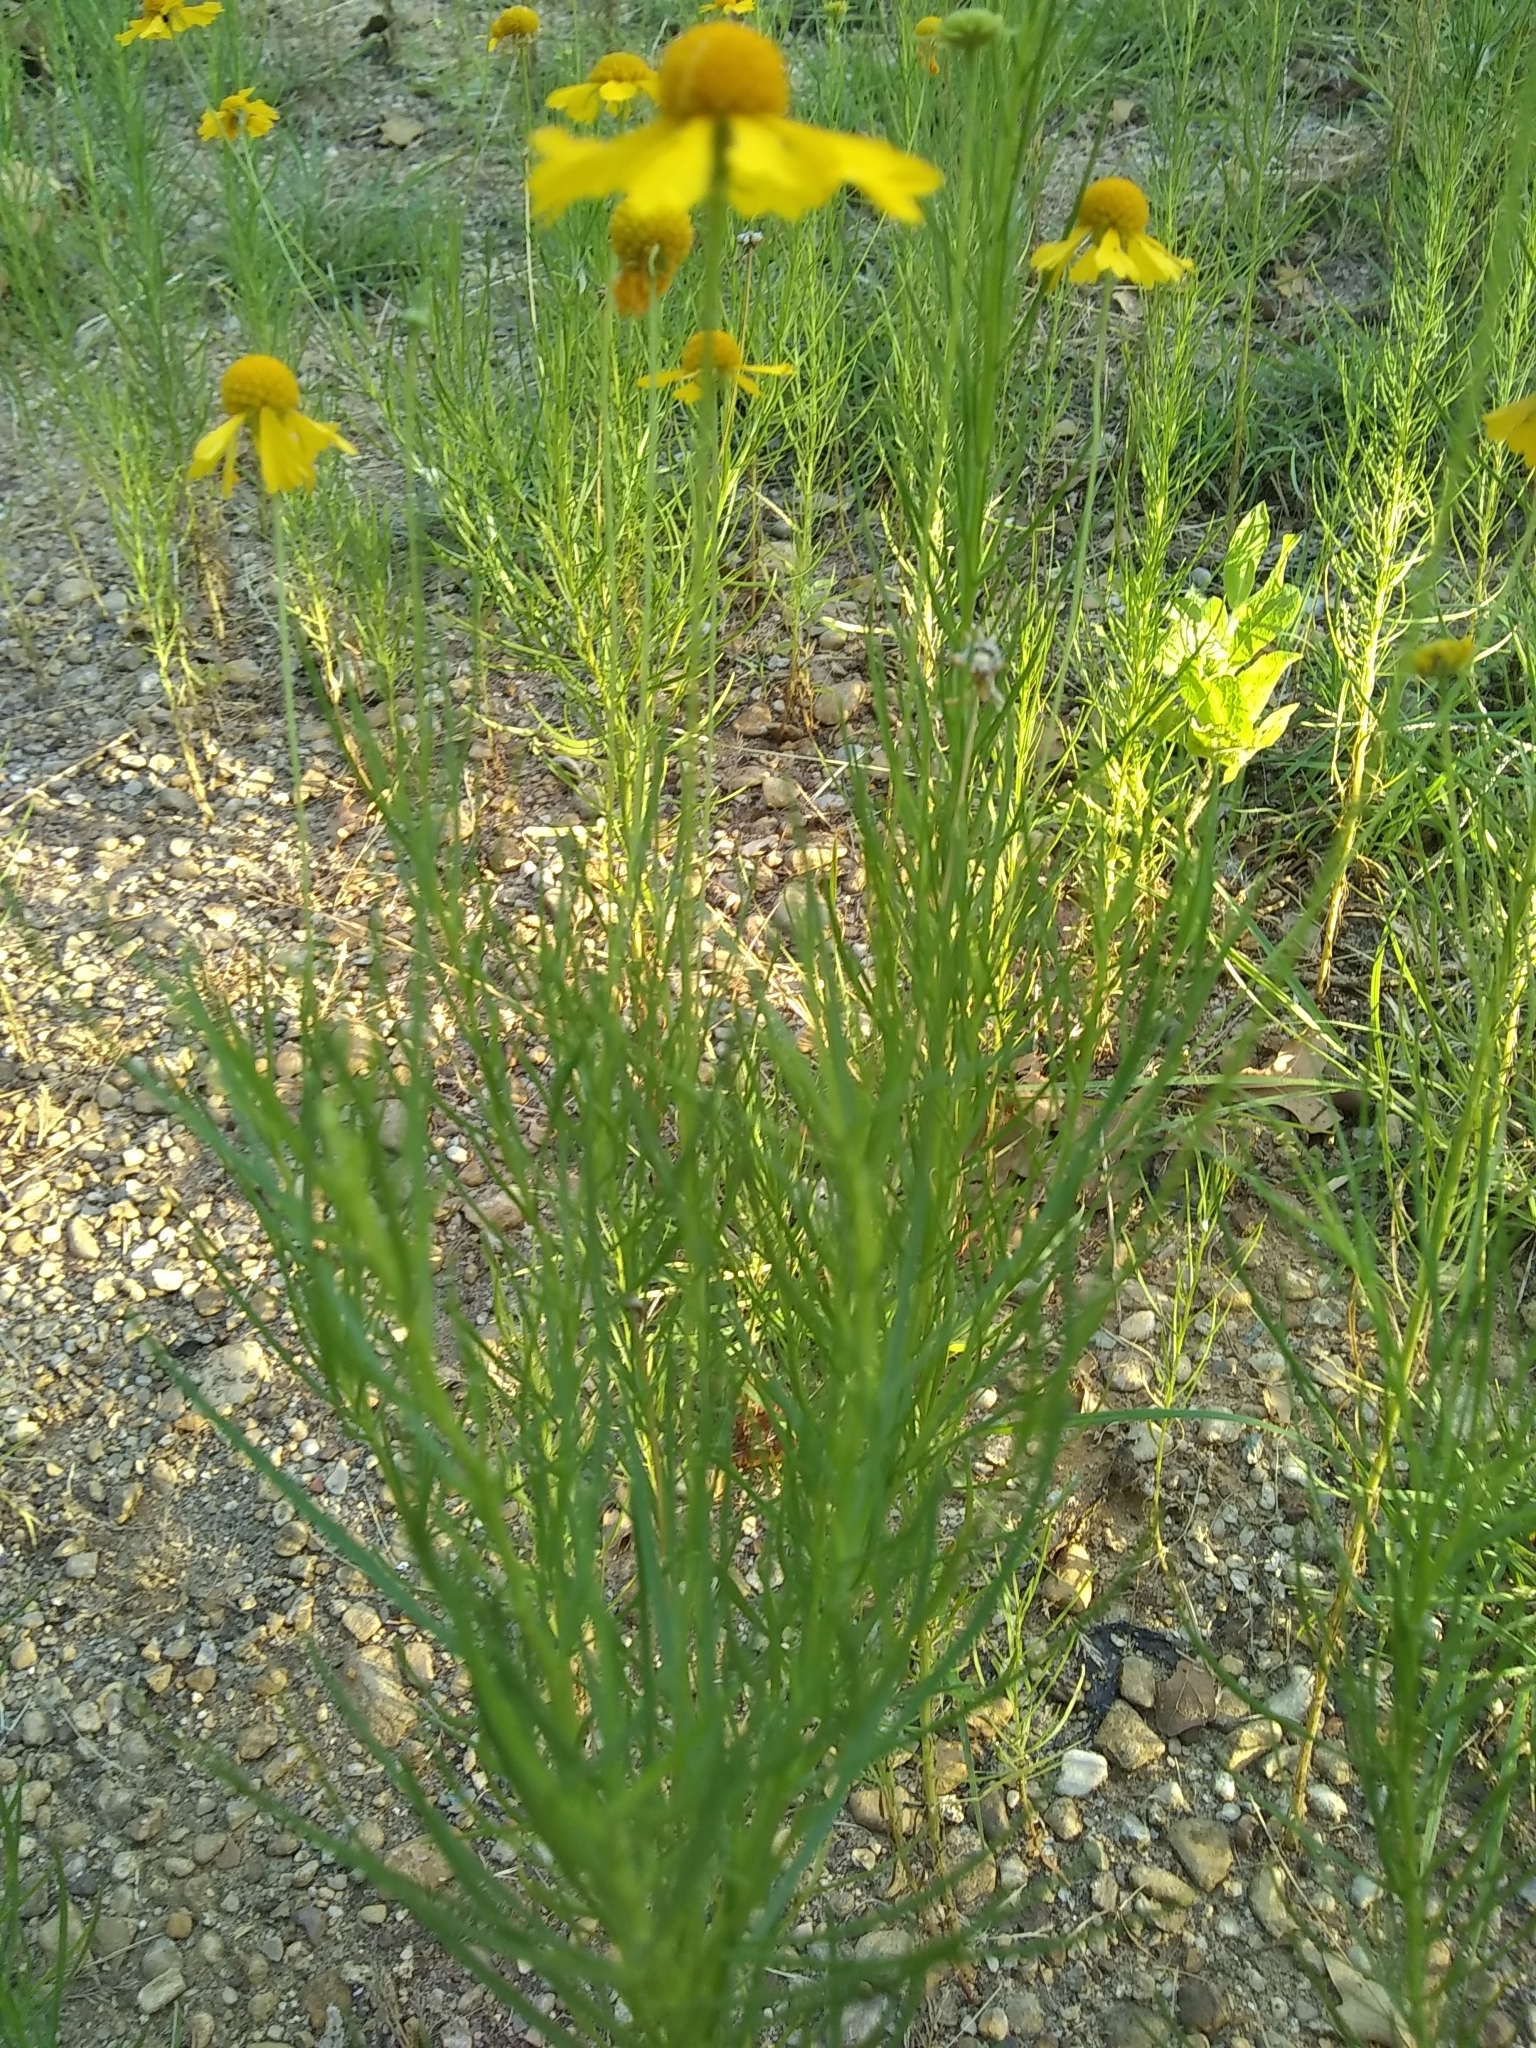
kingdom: Plantae
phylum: Tracheophyta
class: Magnoliopsida
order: Asterales
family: Asteraceae
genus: Helenium
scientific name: Helenium amarum
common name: Bitter sneezeweed
